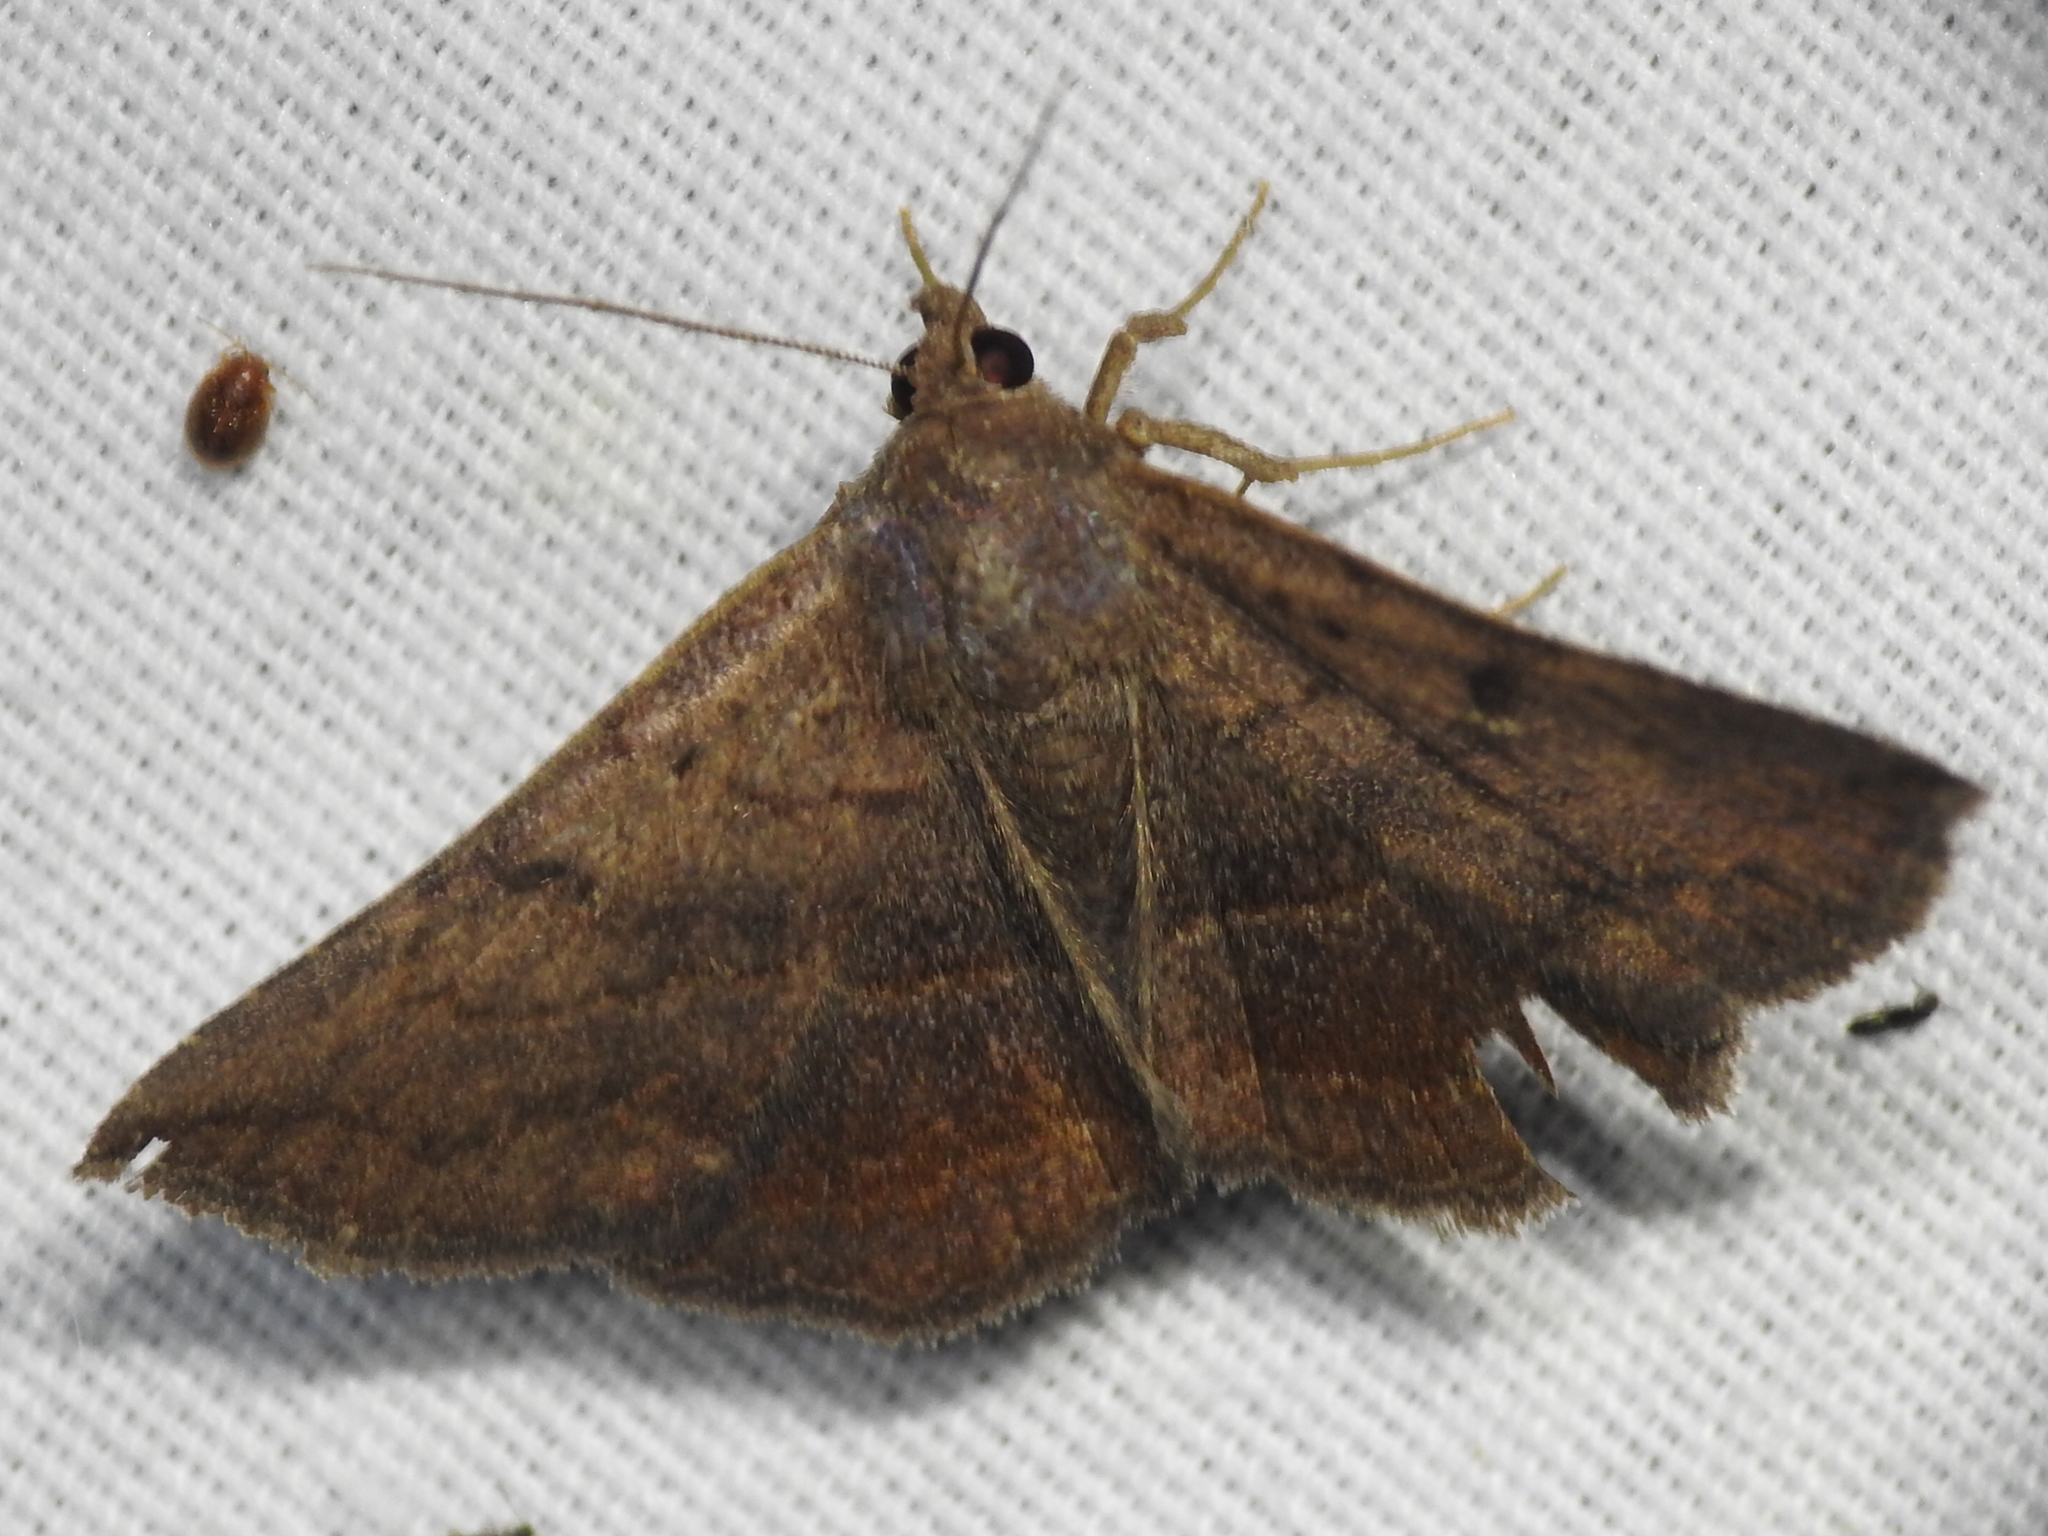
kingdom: Animalia
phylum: Arthropoda
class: Insecta
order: Lepidoptera
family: Erebidae
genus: Lesmone
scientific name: Lesmone detrahens
